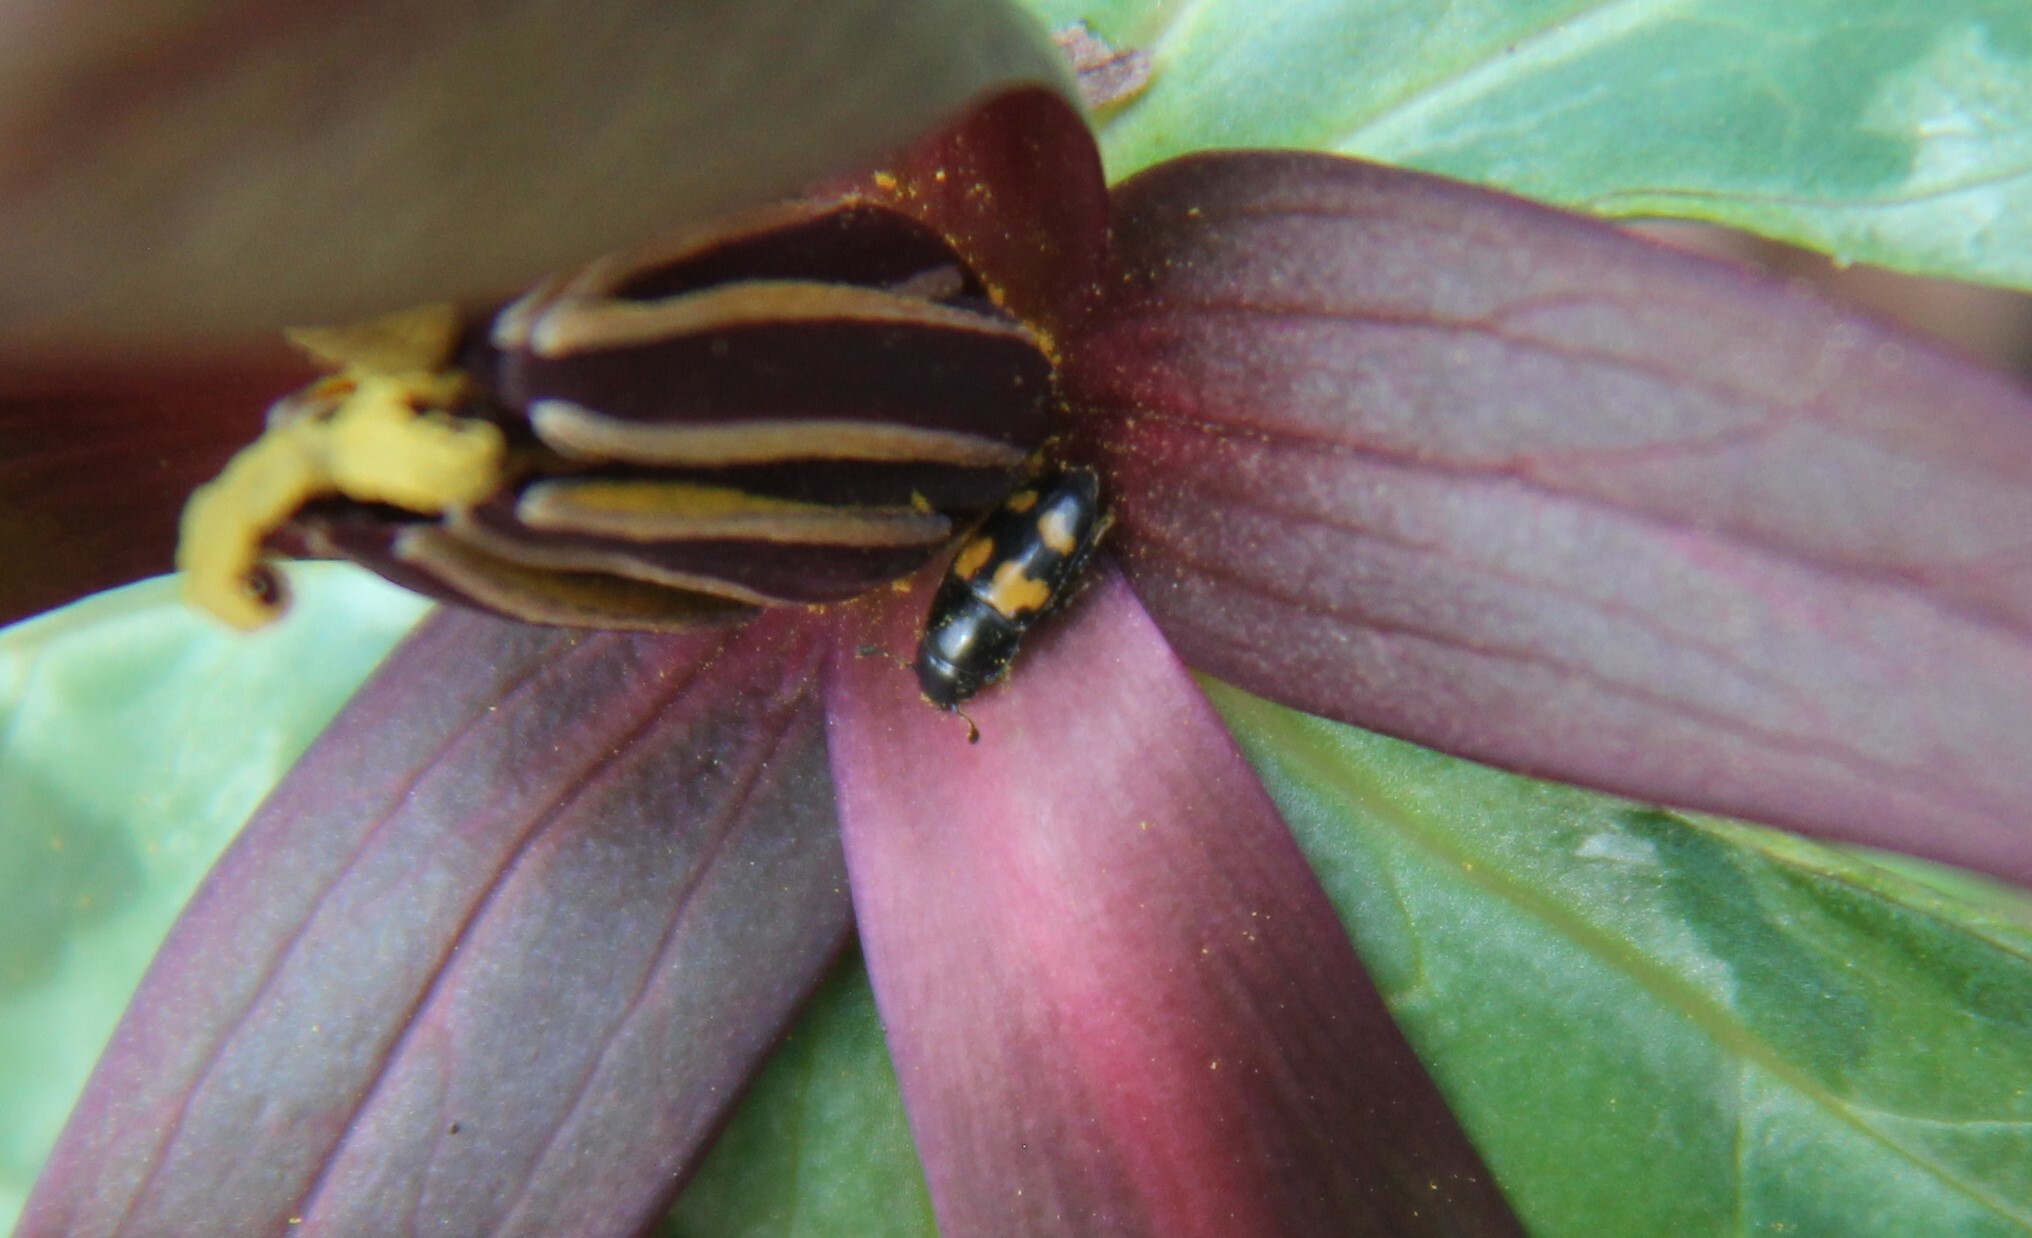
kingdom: Animalia
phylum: Arthropoda
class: Insecta
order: Coleoptera
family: Nitidulidae
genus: Glischrochilus
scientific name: Glischrochilus fasciatus
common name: Picnic beetle
